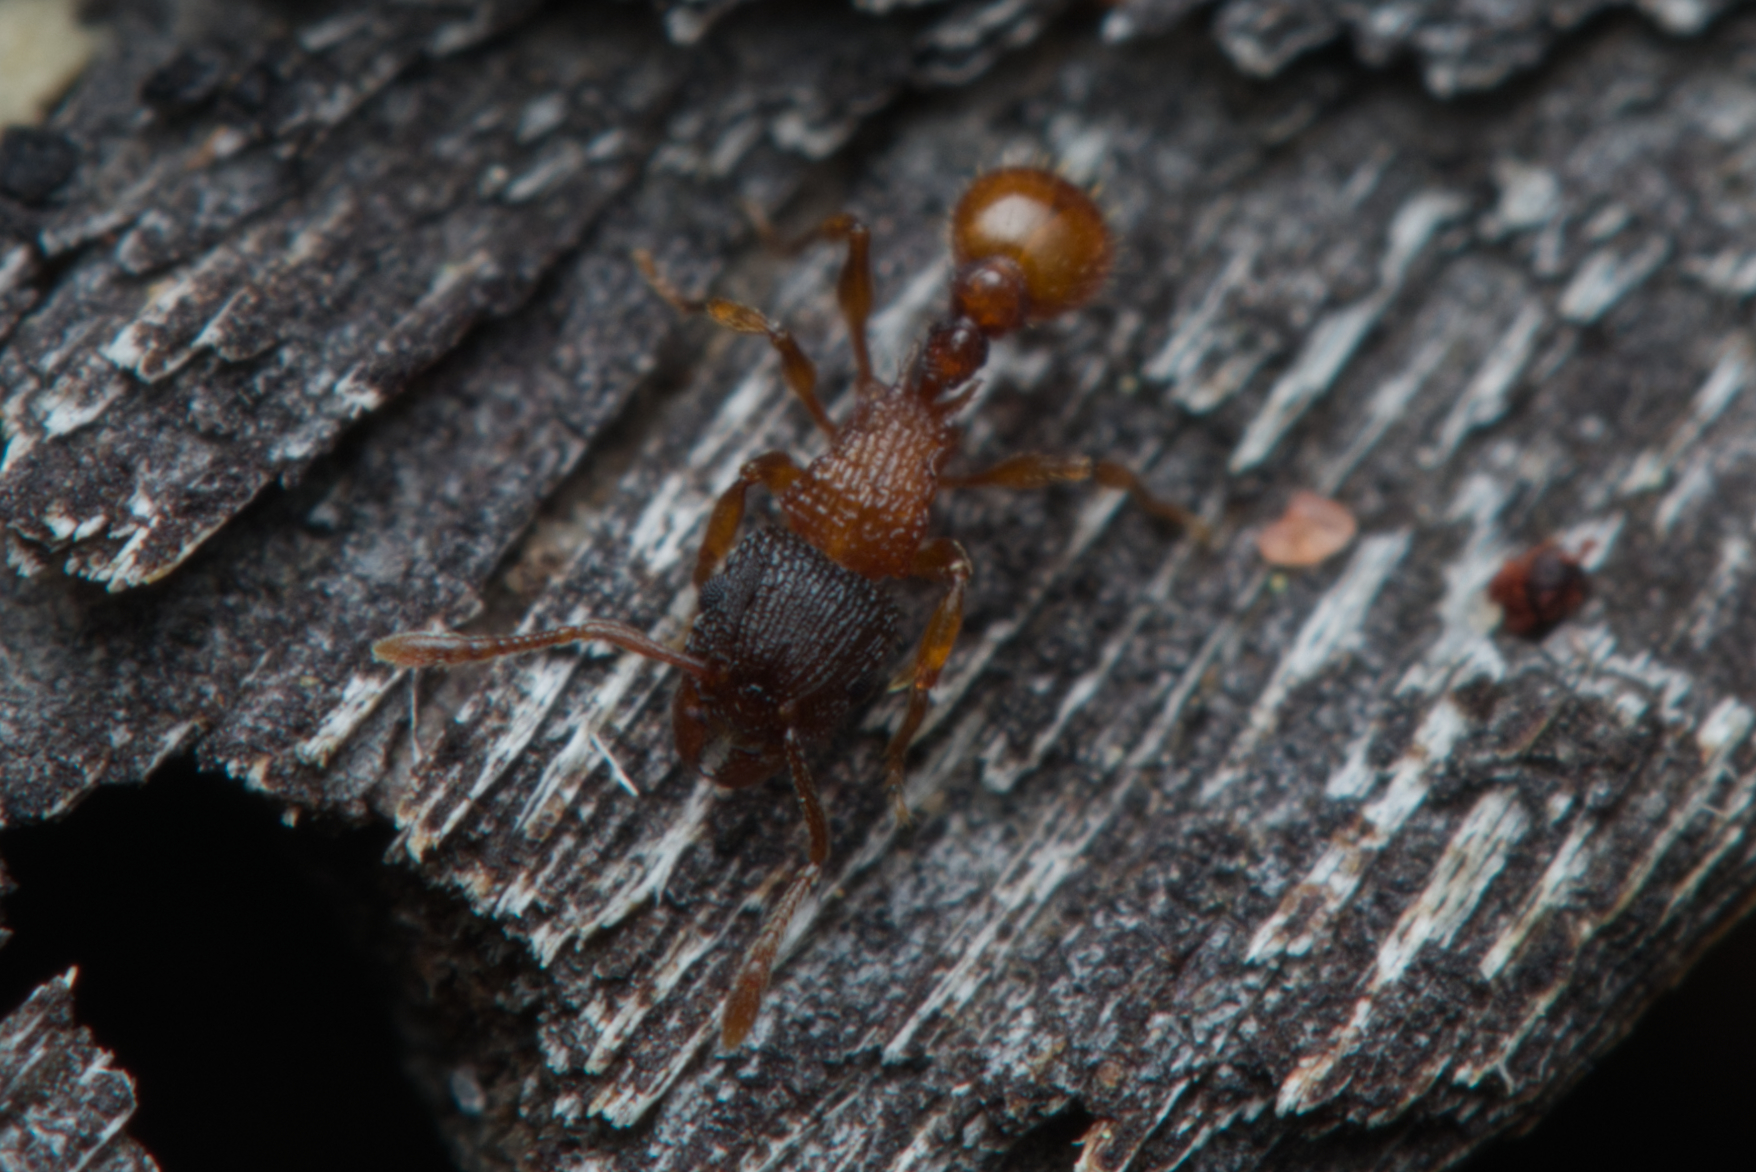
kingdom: Animalia
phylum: Arthropoda
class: Insecta
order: Hymenoptera
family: Formicidae
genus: Tetramorium
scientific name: Tetramorium fuscipes
